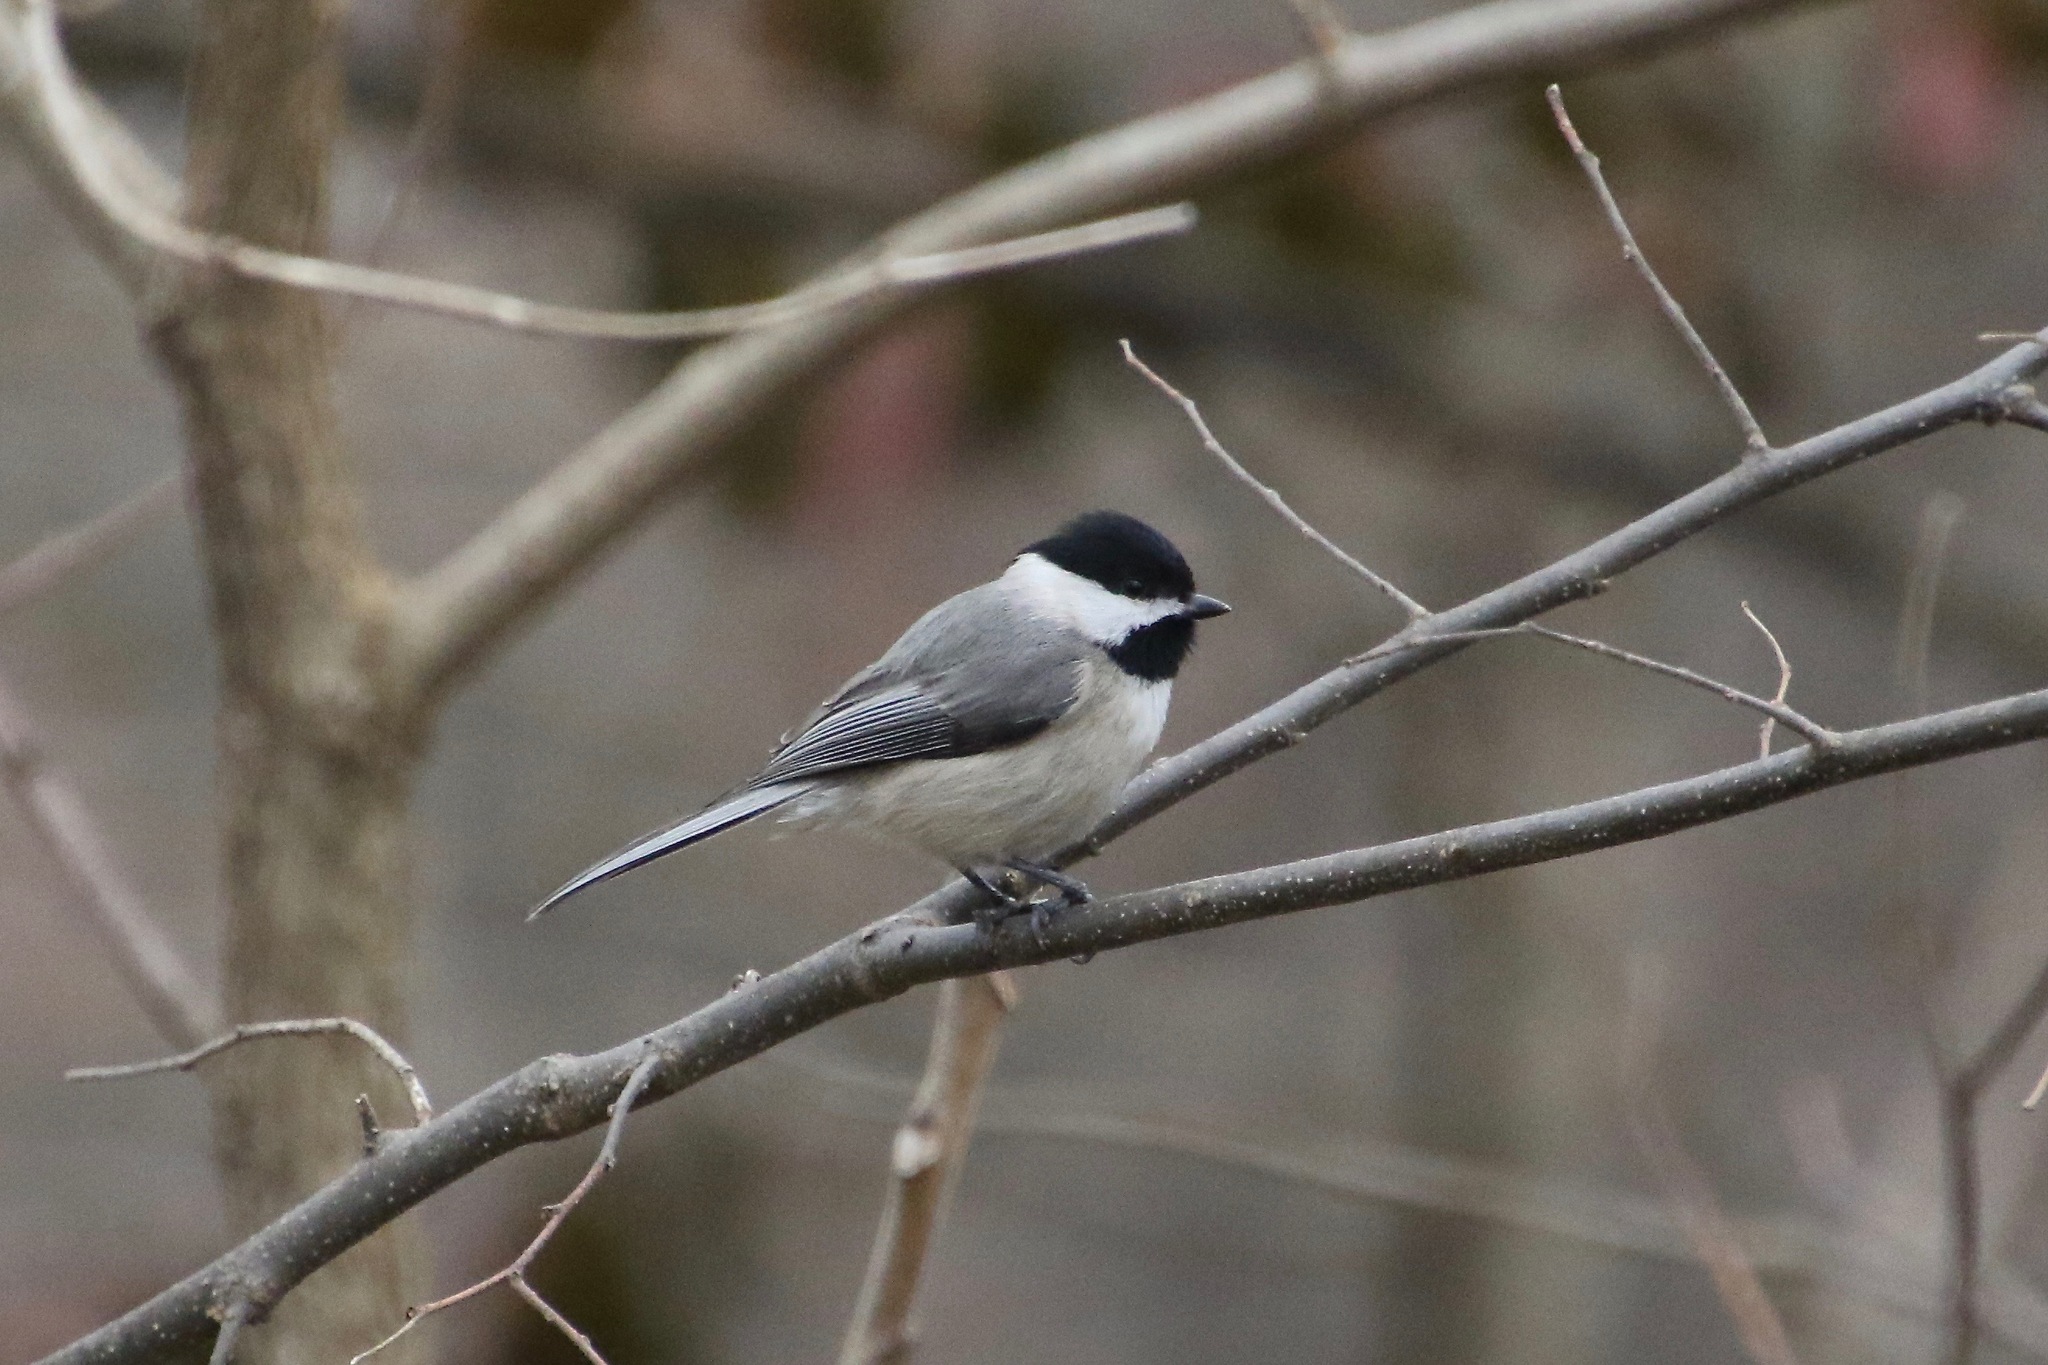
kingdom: Animalia
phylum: Chordata
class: Aves
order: Passeriformes
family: Paridae
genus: Poecile
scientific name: Poecile carolinensis
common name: Carolina chickadee
